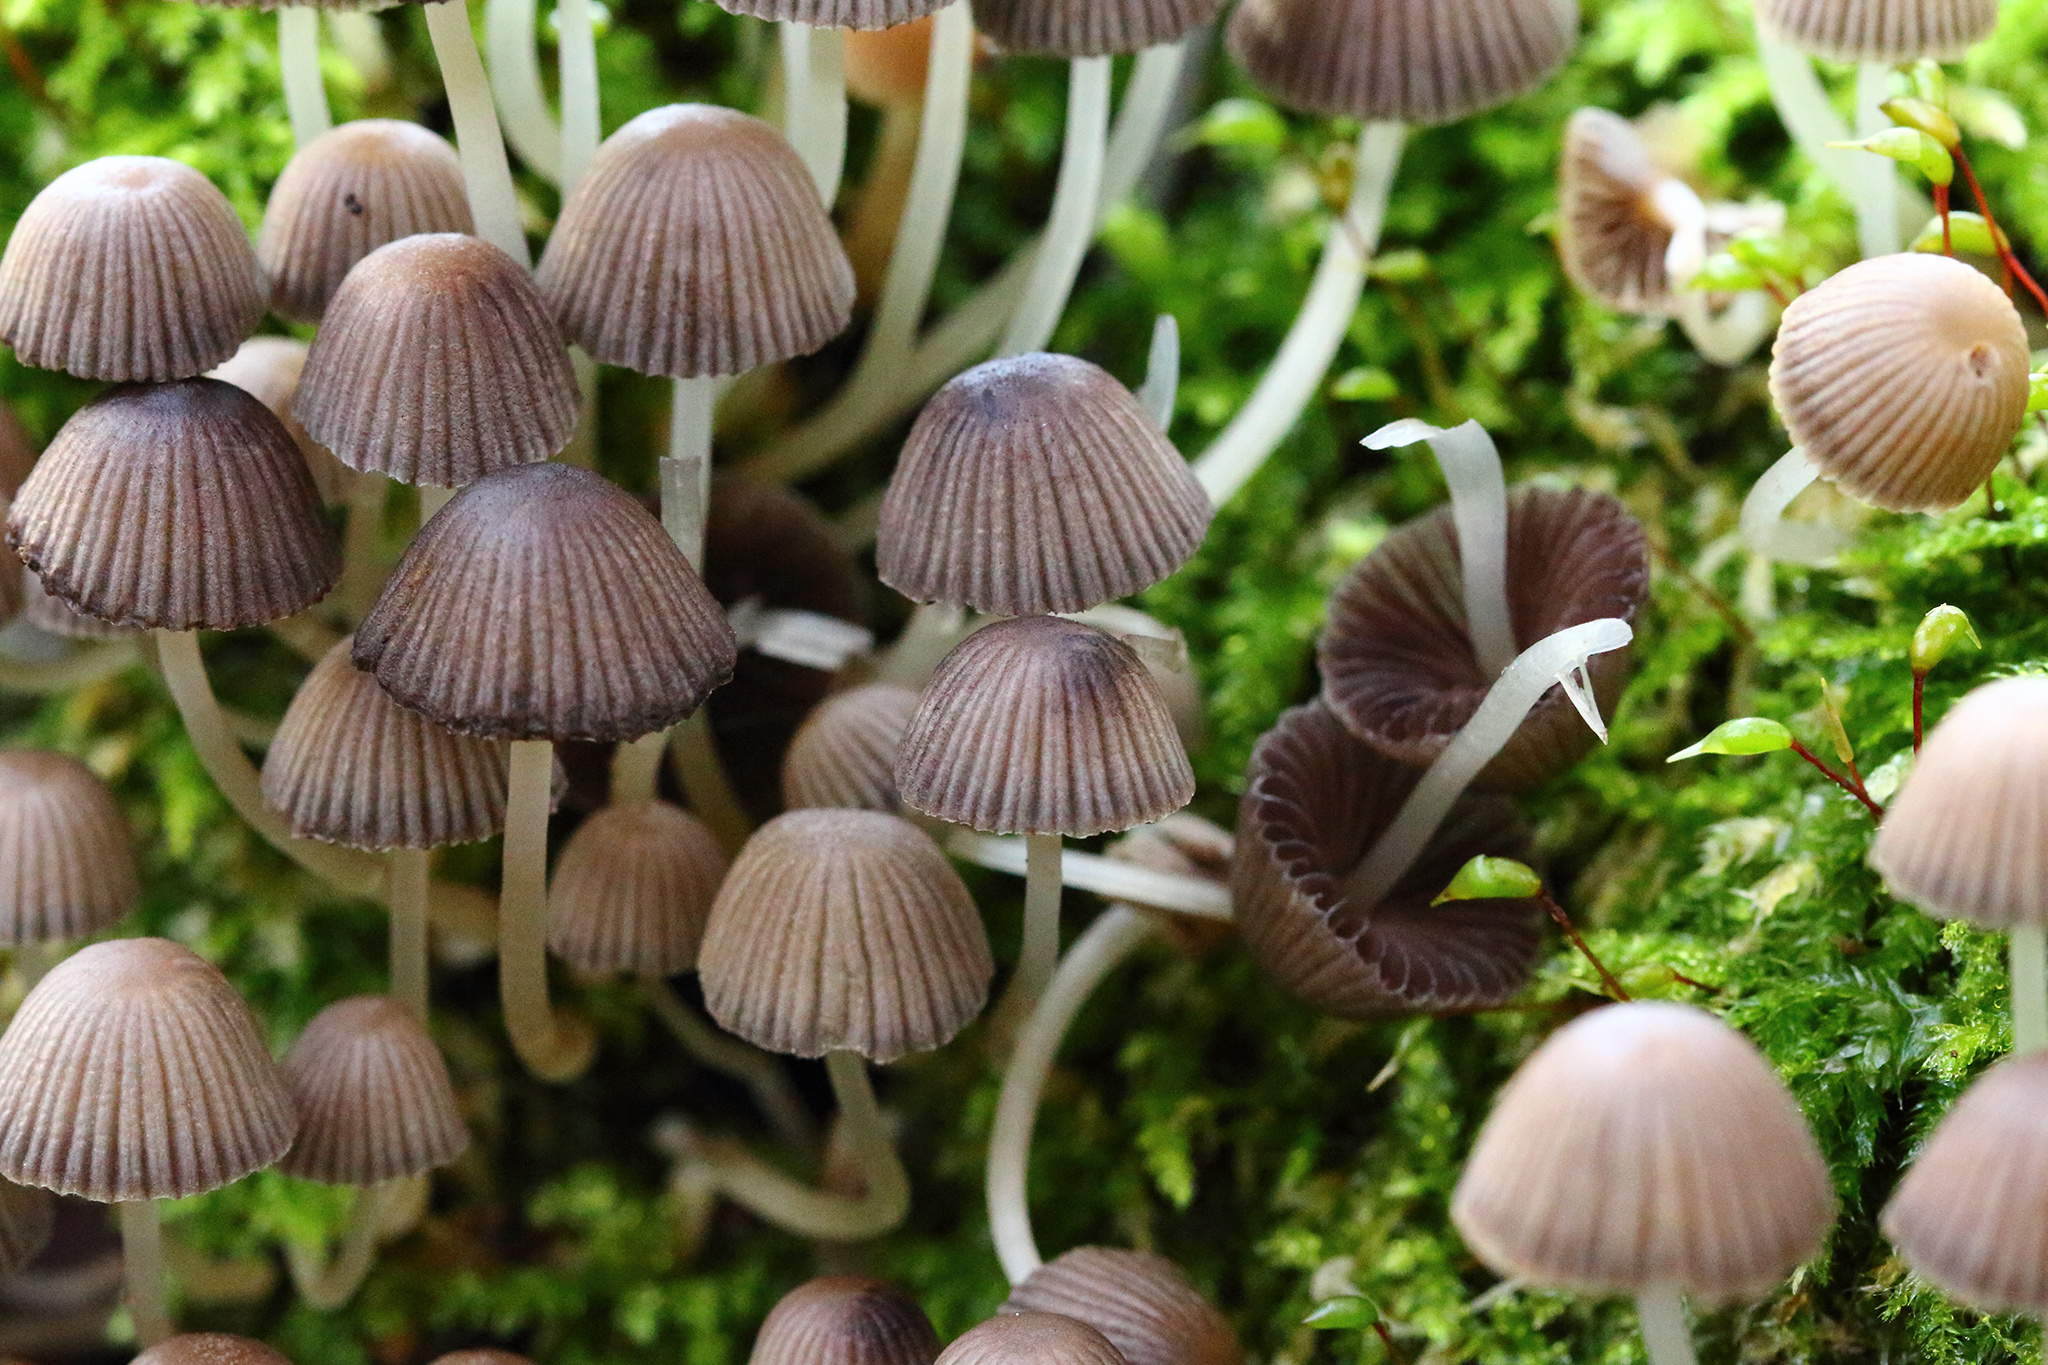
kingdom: Fungi
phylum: Basidiomycota
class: Agaricomycetes
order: Agaricales
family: Psathyrellaceae
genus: Coprinellus
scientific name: Coprinellus disseminatus
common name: Fairies' bonnets
